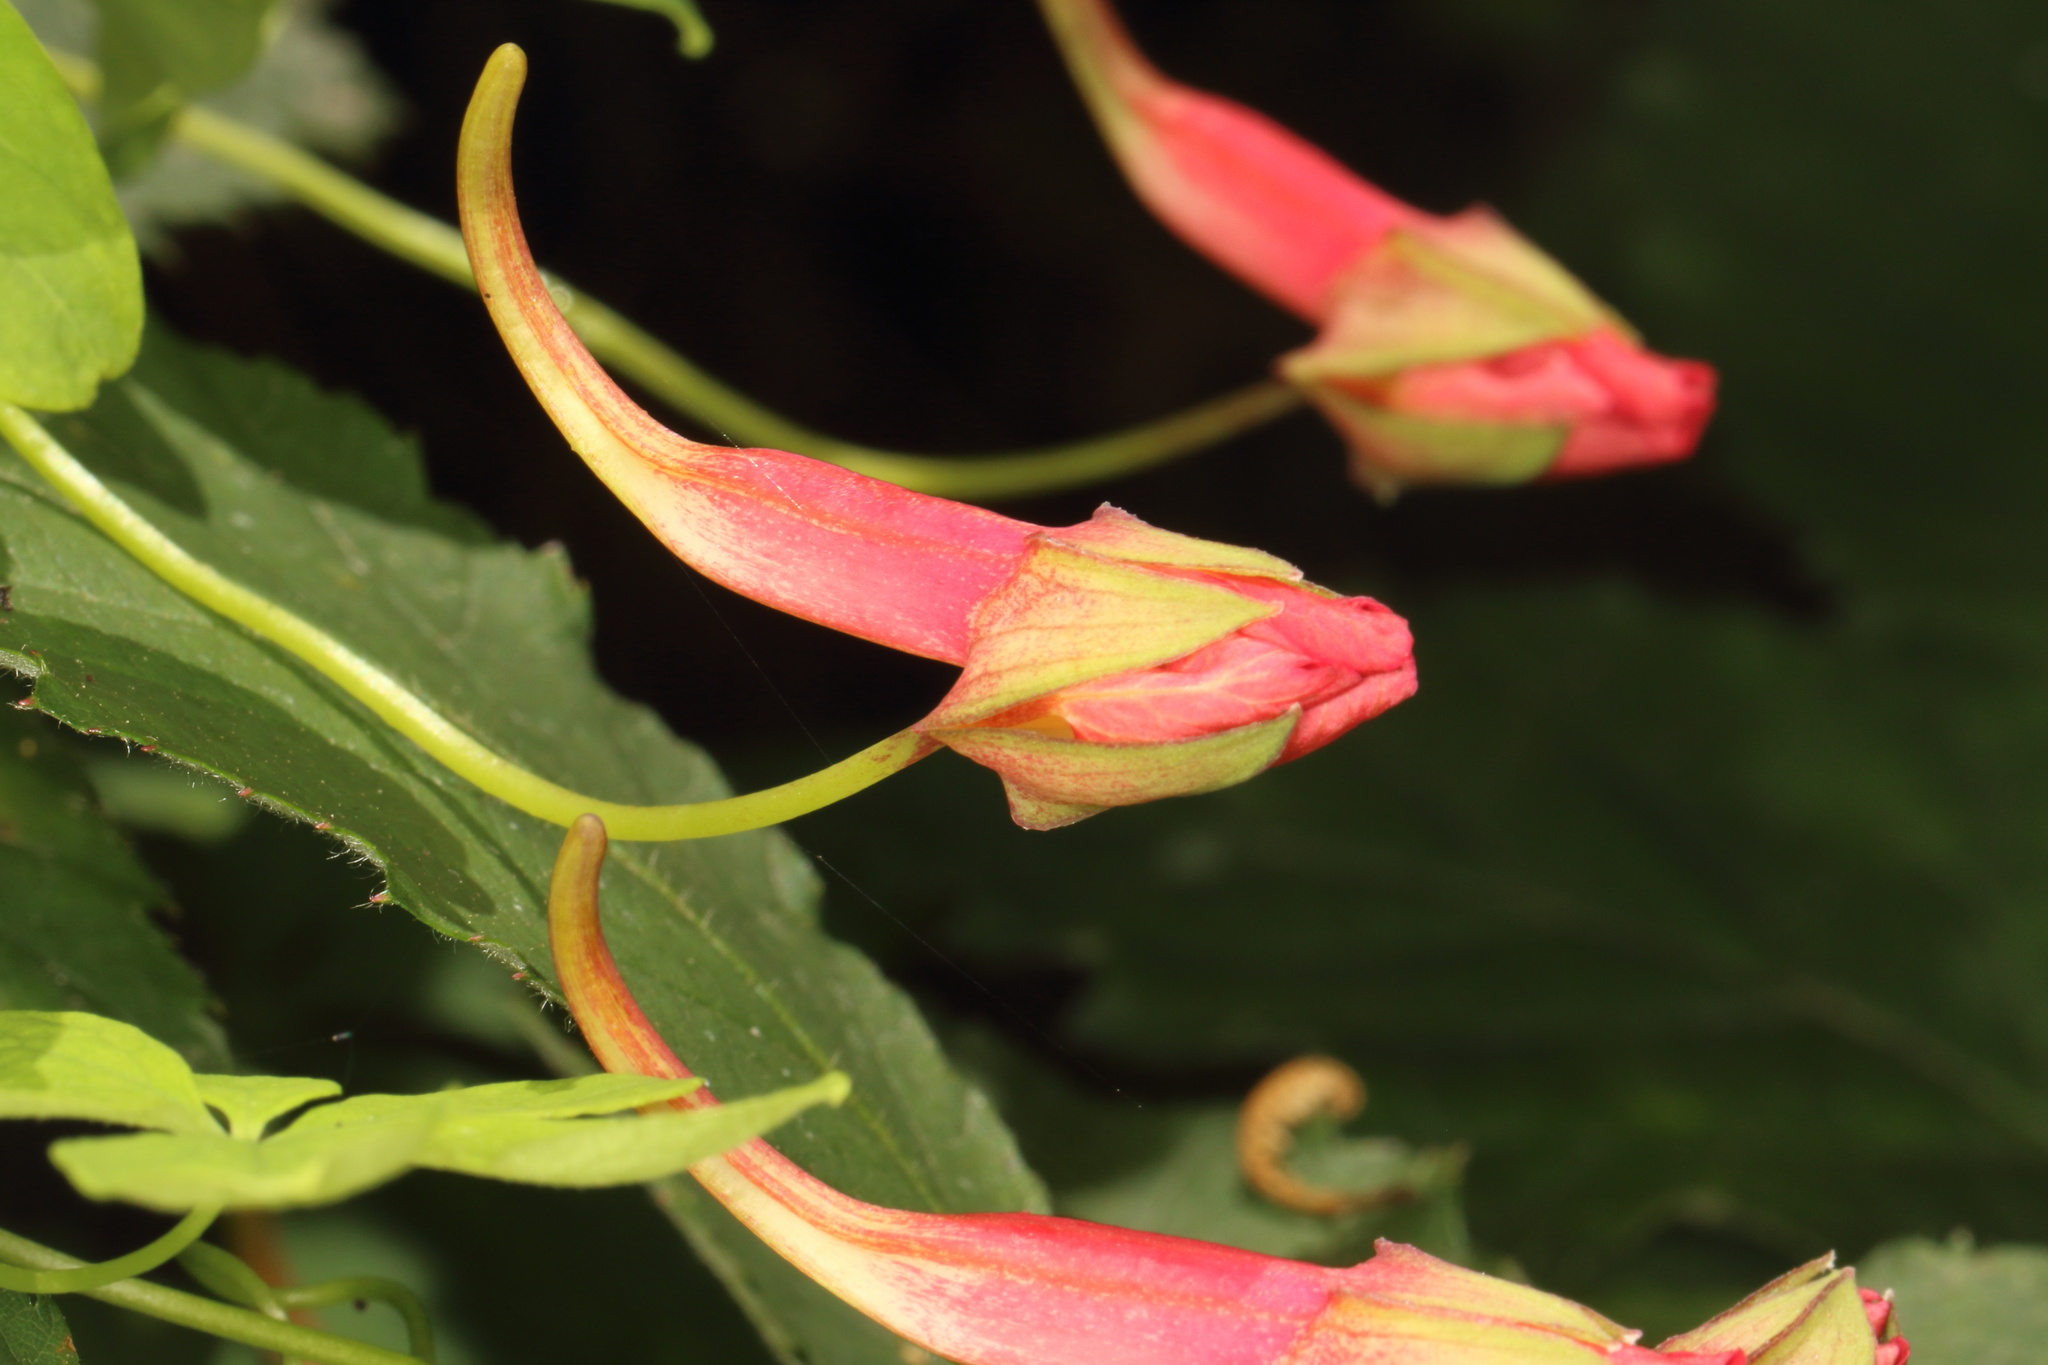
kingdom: Plantae
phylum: Tracheophyta
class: Magnoliopsida
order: Brassicales
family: Tropaeolaceae
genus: Tropaeolum
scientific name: Tropaeolum speciosum
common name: Flame nasturtium
